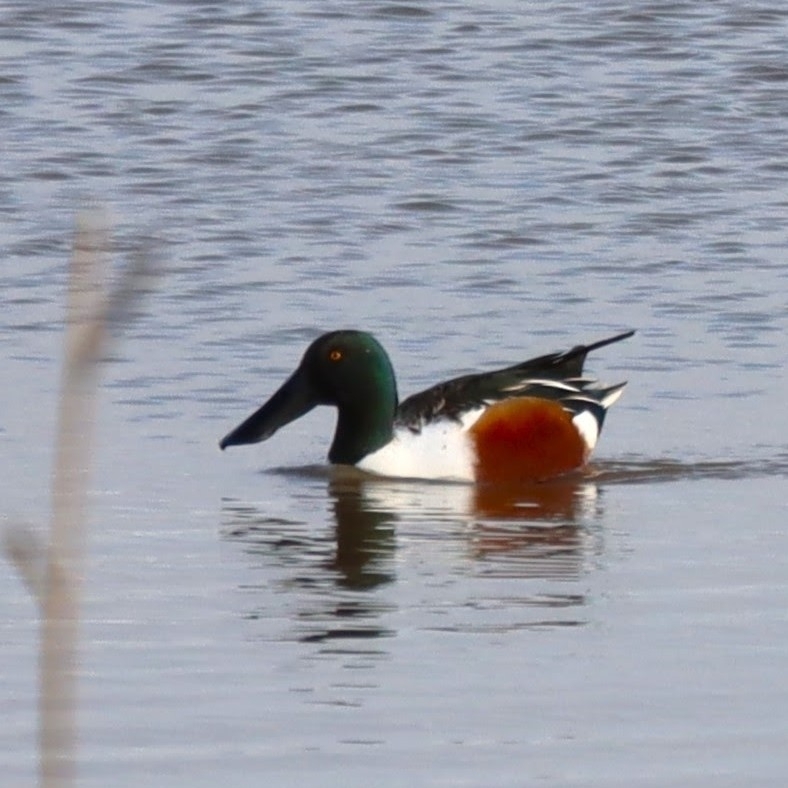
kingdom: Animalia
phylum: Chordata
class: Aves
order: Anseriformes
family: Anatidae
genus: Spatula
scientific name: Spatula clypeata
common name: Northern shoveler
